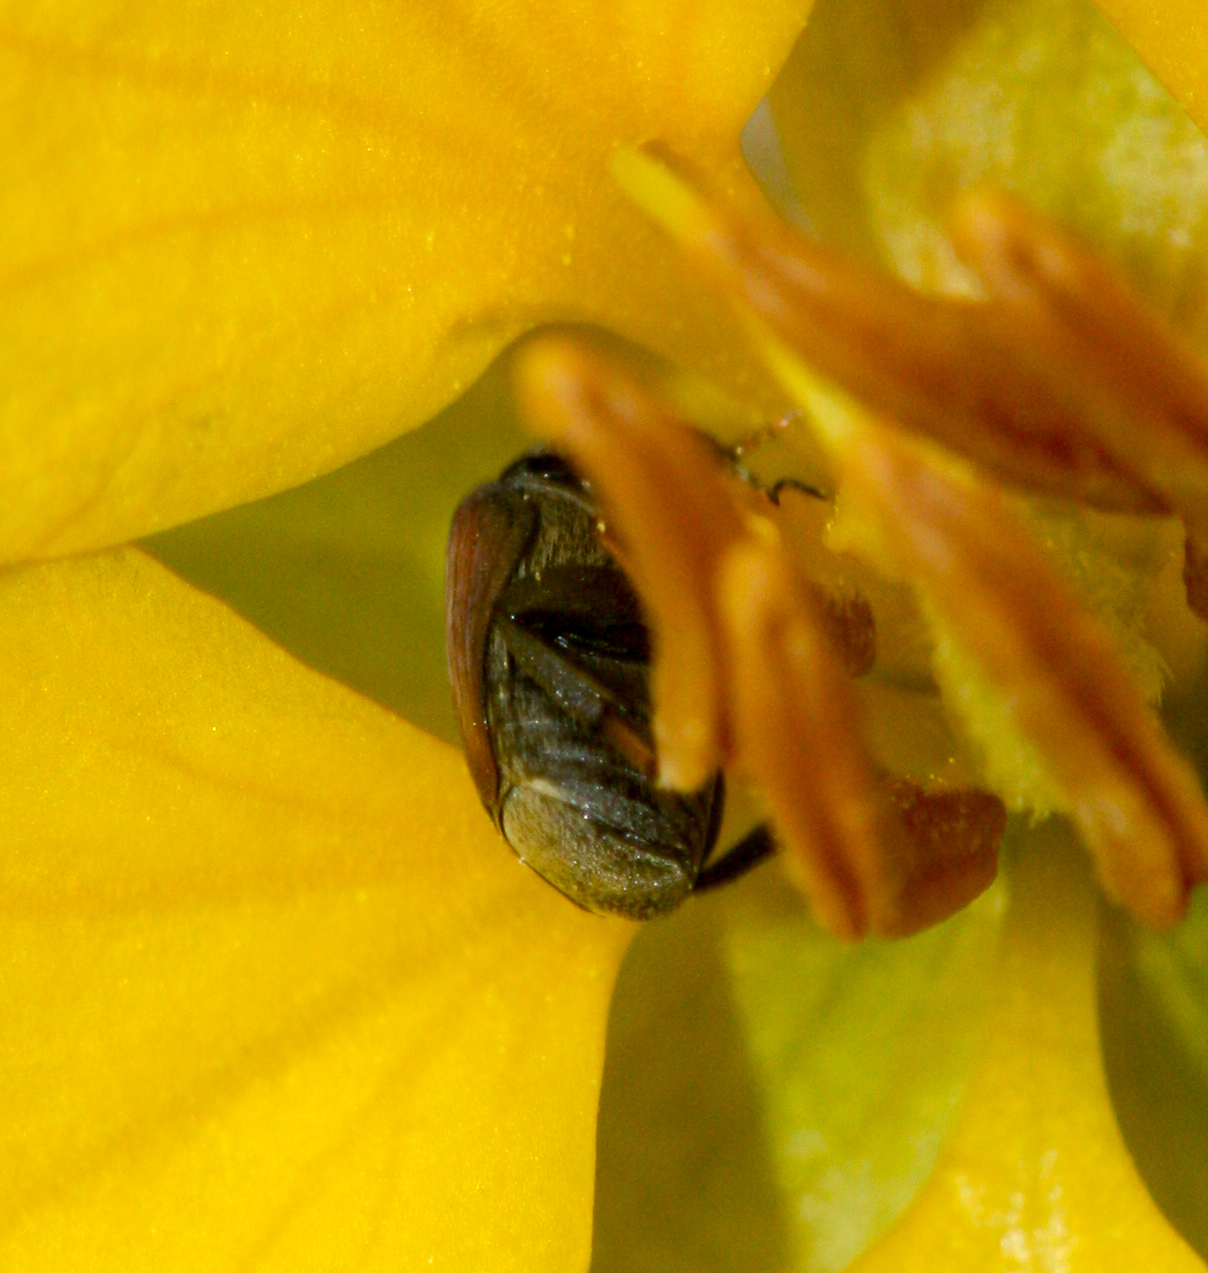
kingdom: Animalia
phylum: Arthropoda
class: Insecta
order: Coleoptera
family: Chrysomelidae
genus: Stator
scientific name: Stator limbatus
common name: Leaf beetle
